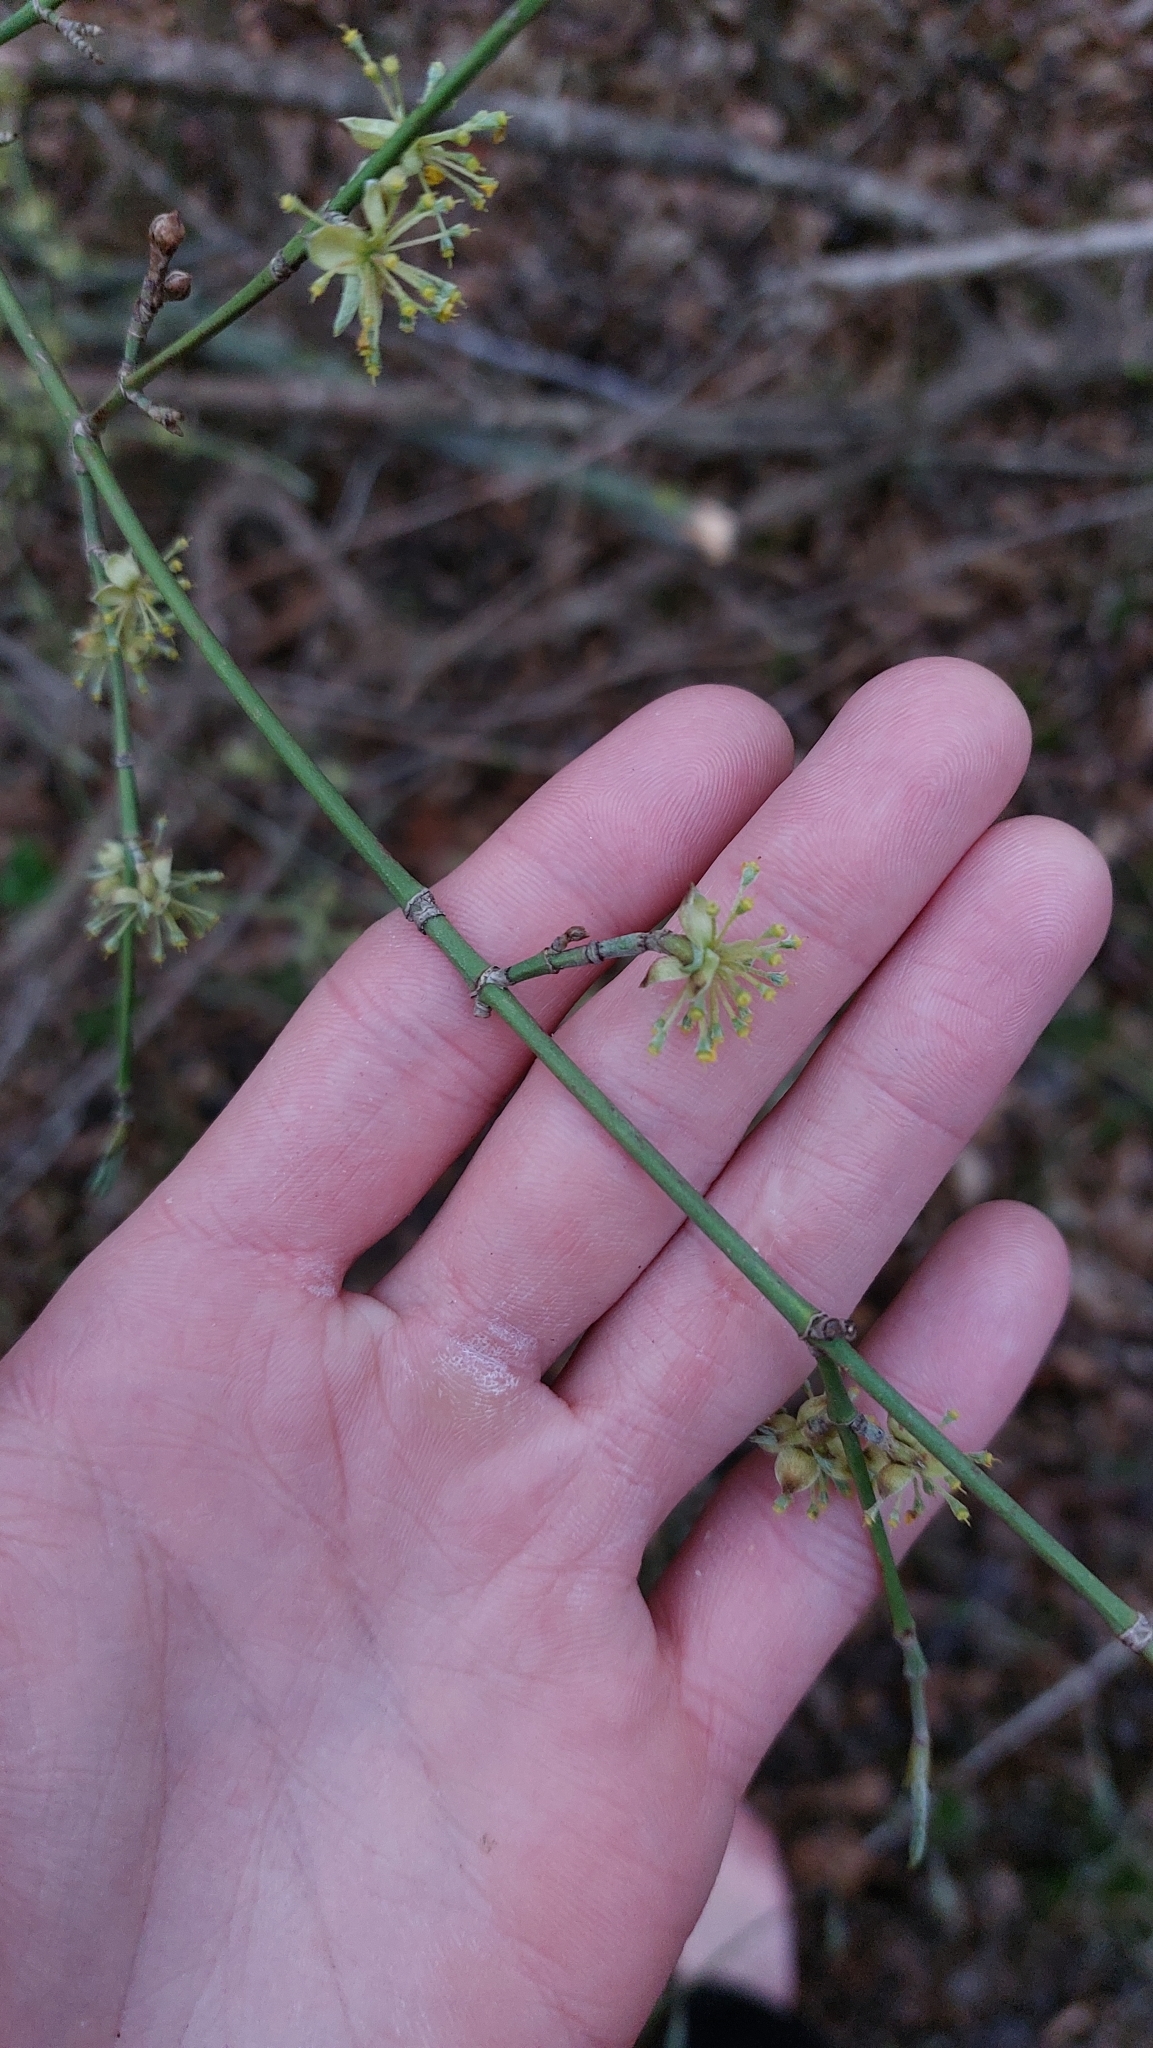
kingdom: Plantae
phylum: Tracheophyta
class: Magnoliopsida
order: Cornales
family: Cornaceae
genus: Cornus
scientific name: Cornus mas
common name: Cornelian-cherry
